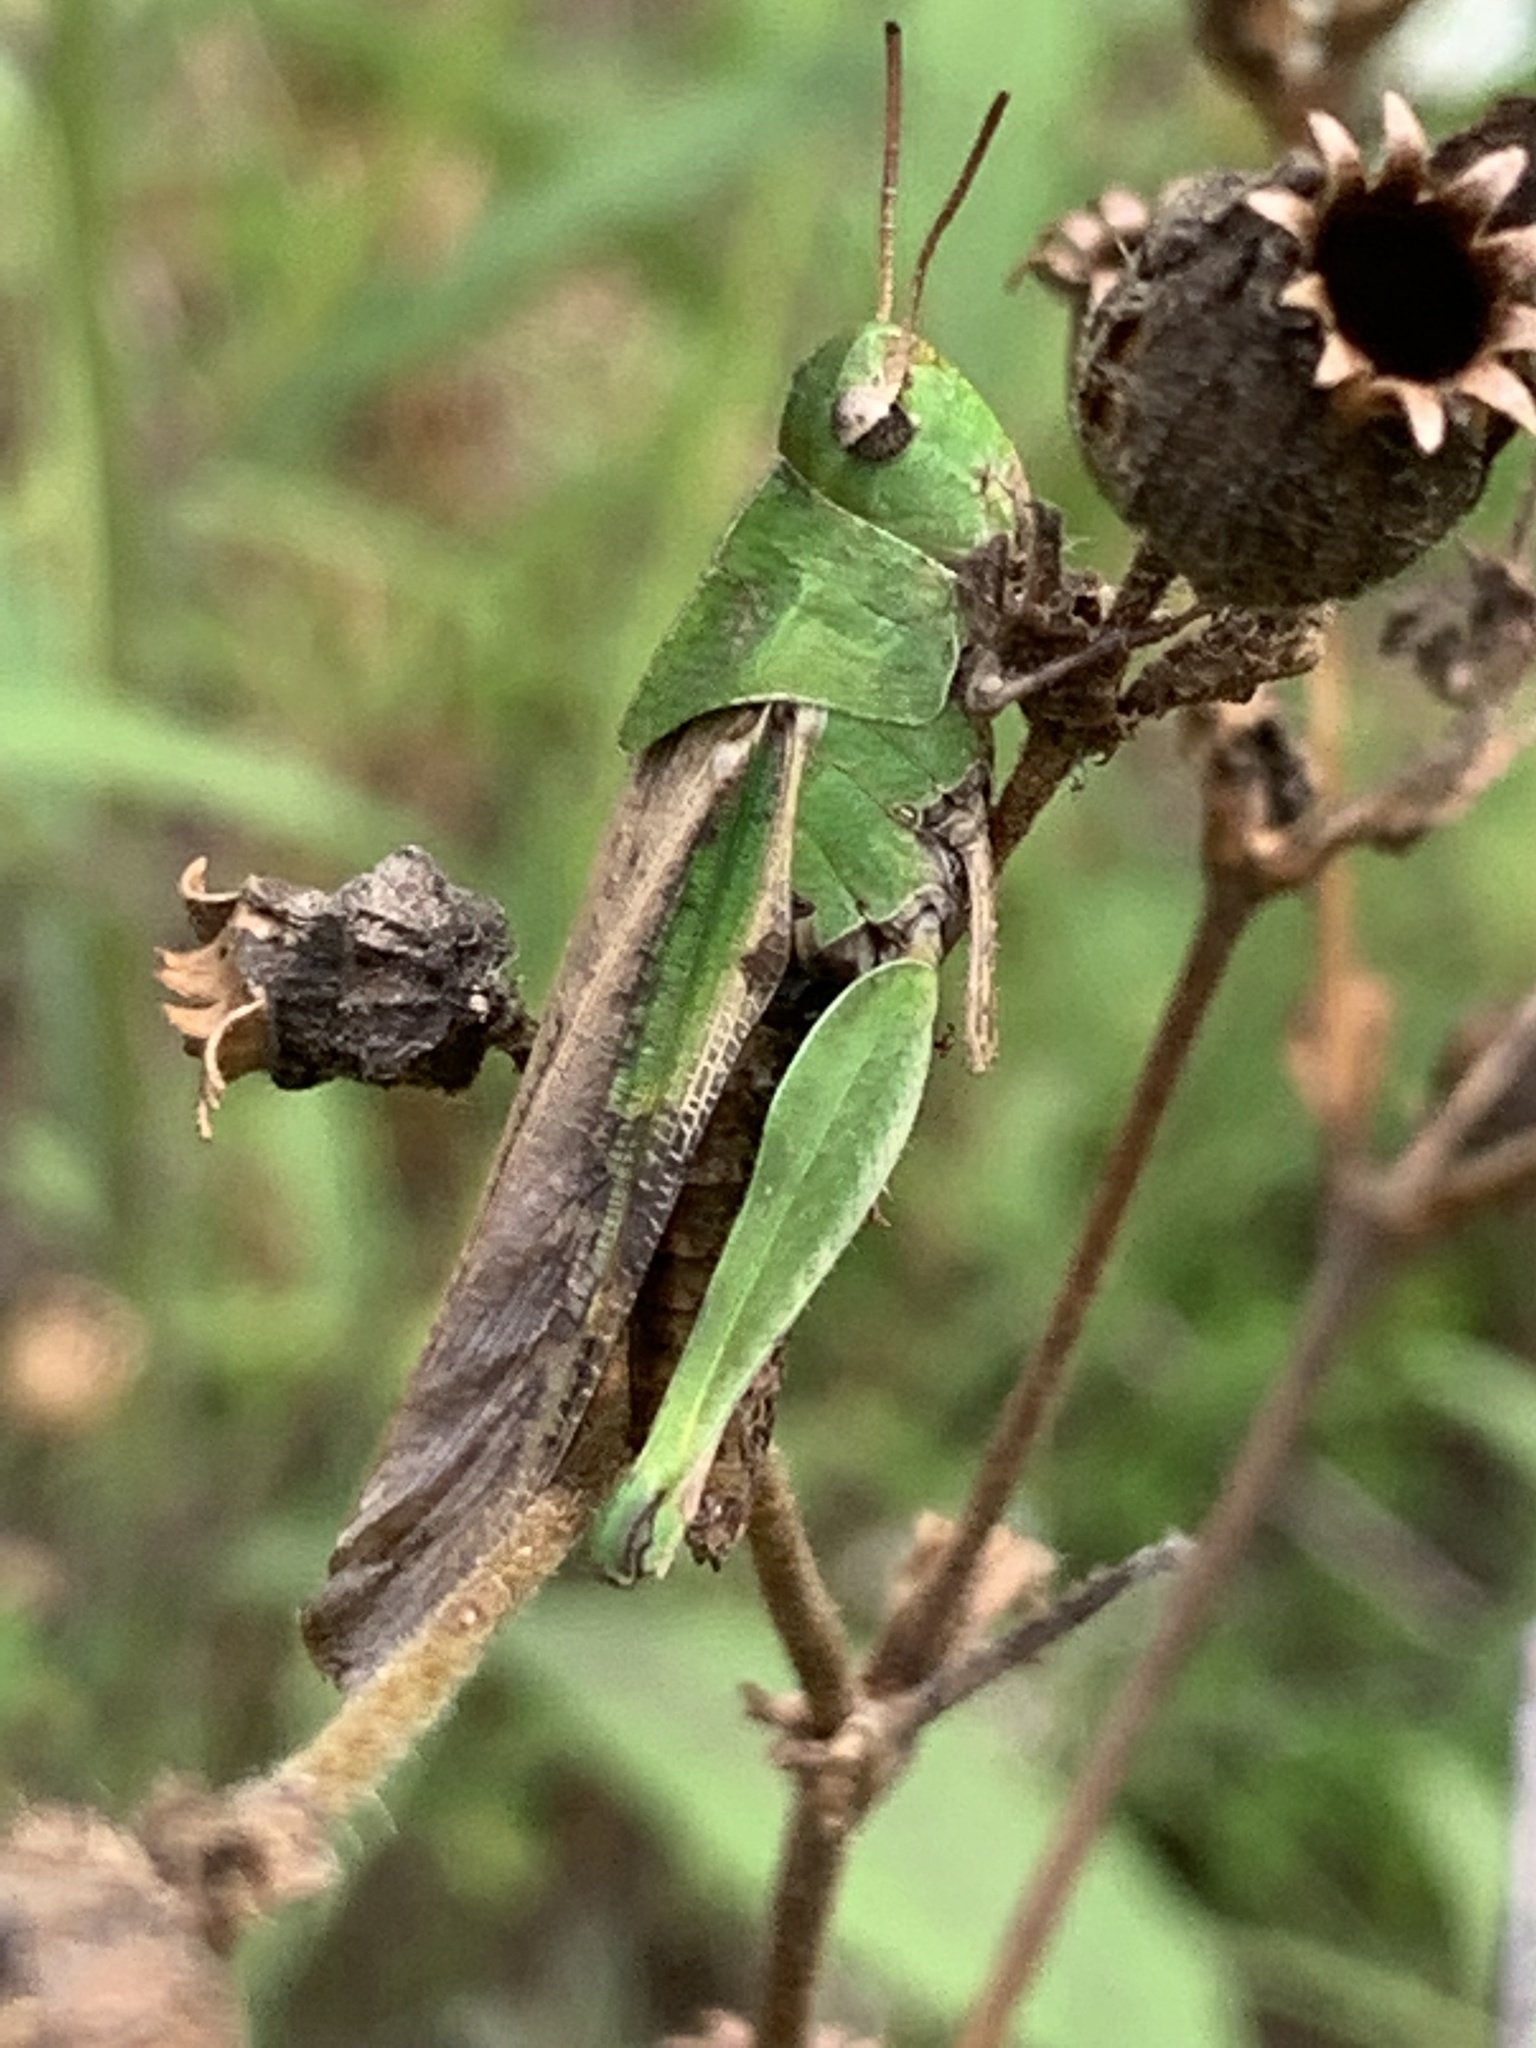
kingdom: Animalia
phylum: Arthropoda
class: Insecta
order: Orthoptera
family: Acrididae
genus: Chortophaga
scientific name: Chortophaga viridifasciata
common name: Green-striped grasshopper
